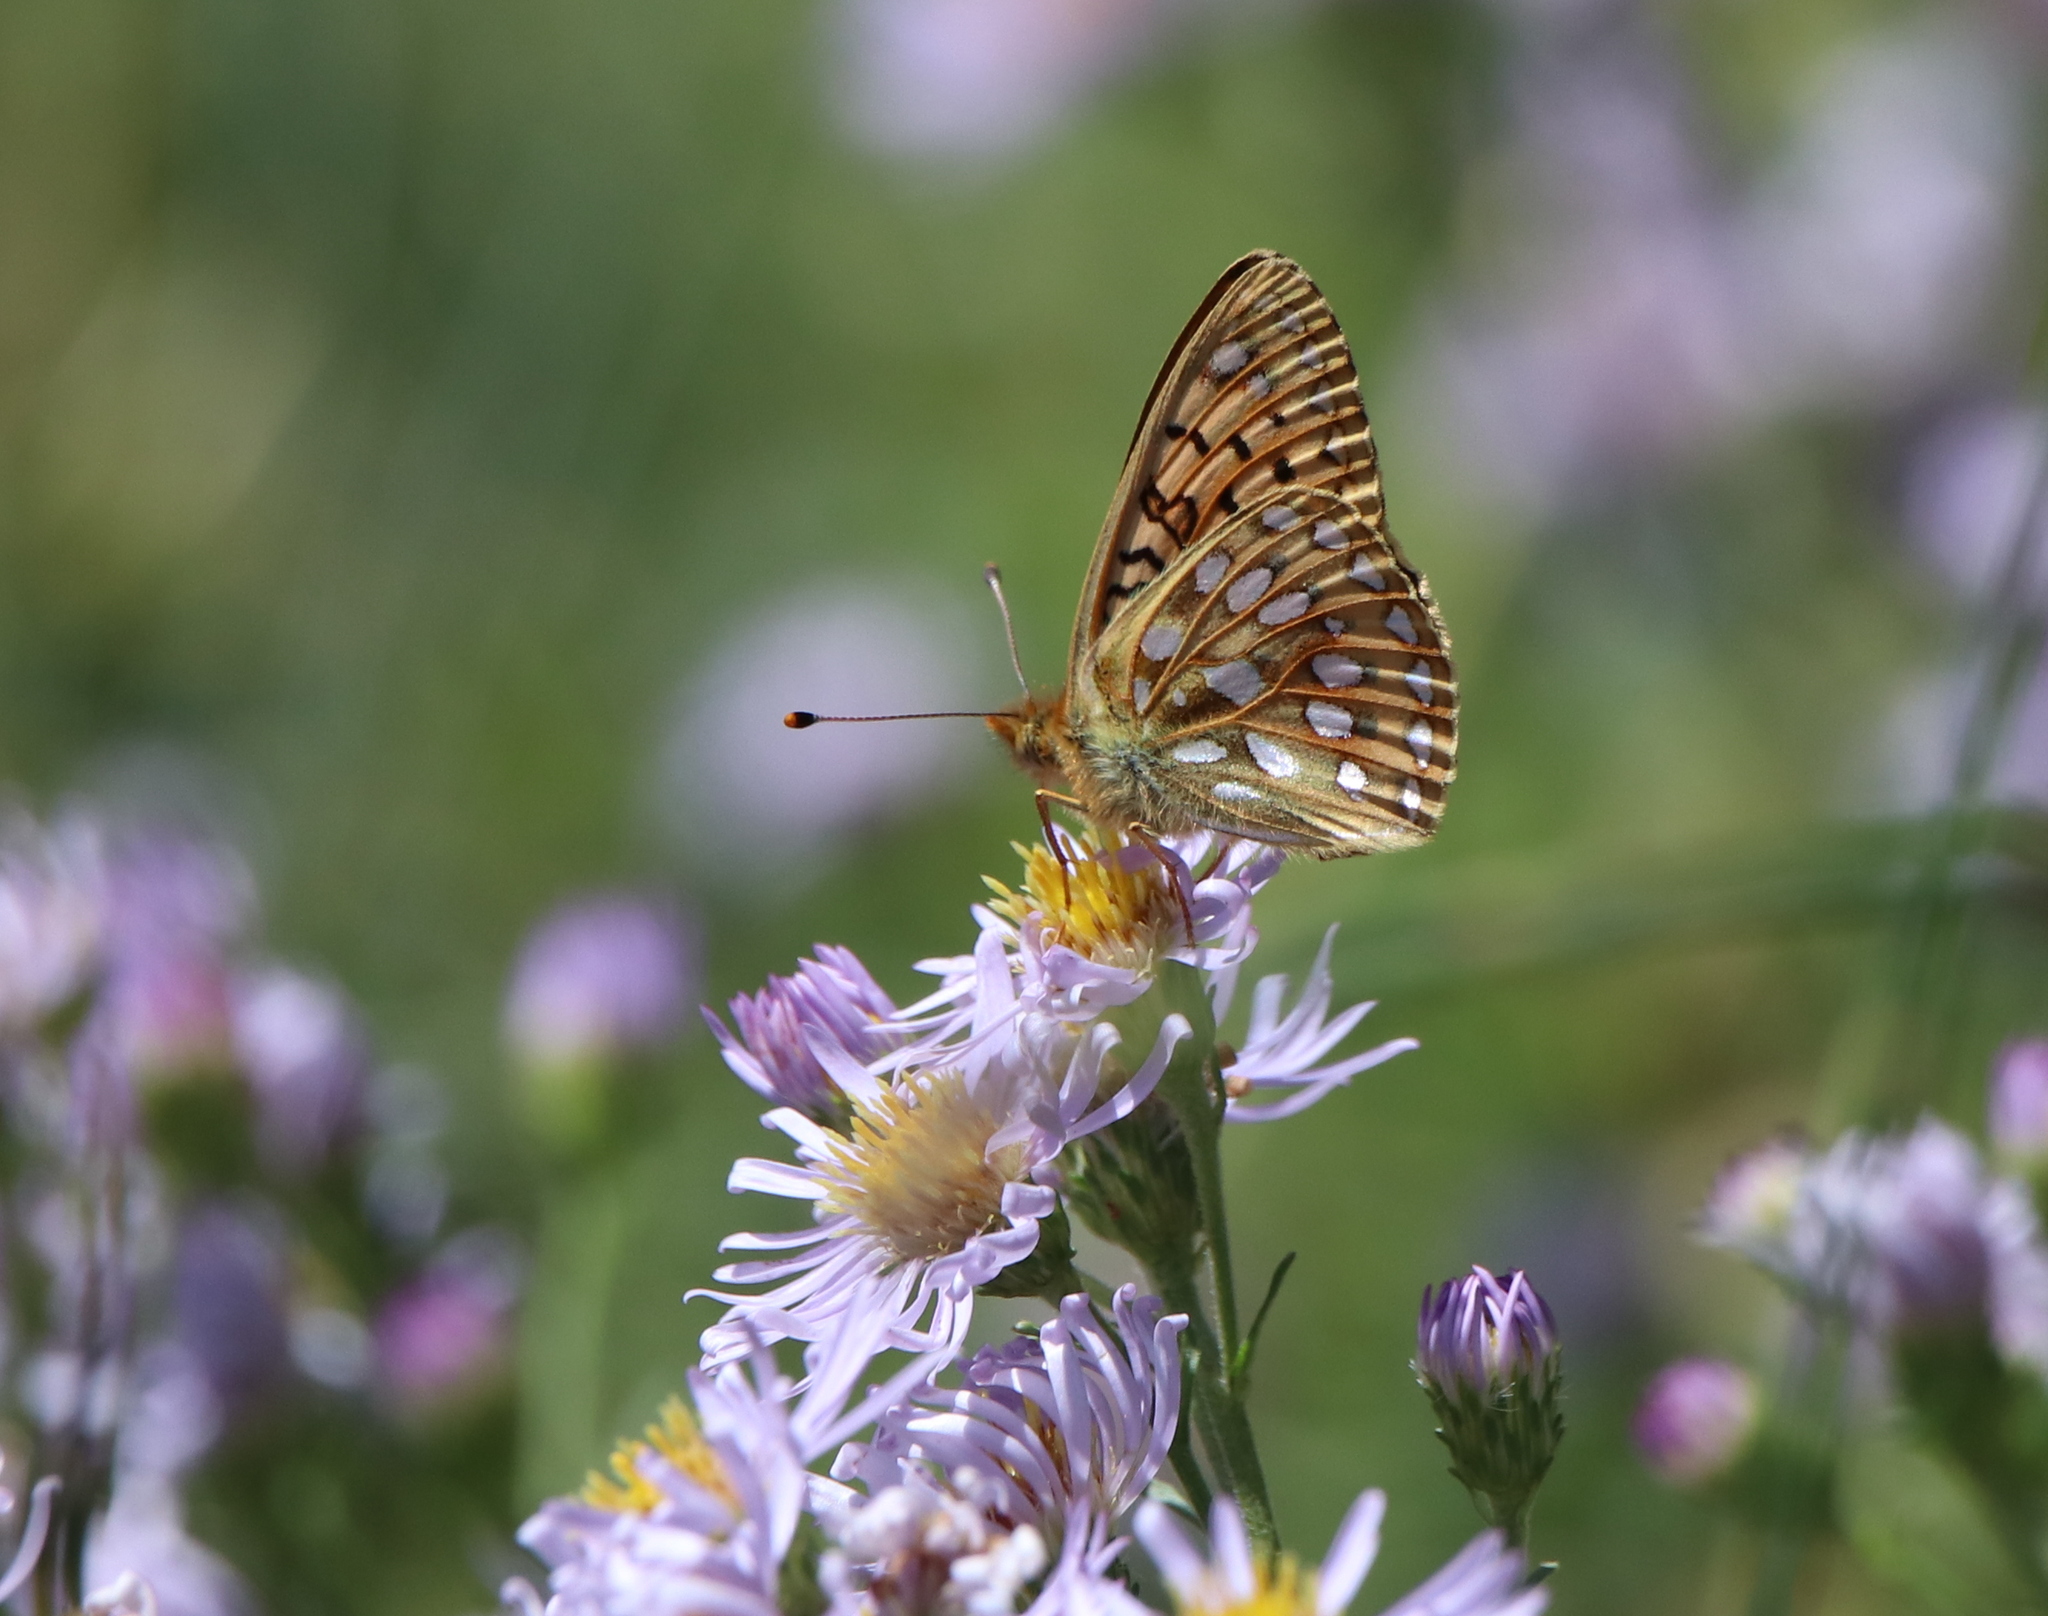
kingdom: Animalia
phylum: Arthropoda
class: Insecta
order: Lepidoptera
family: Nymphalidae
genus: Speyeria
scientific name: Speyeria mormonia
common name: Mormon fritillary
